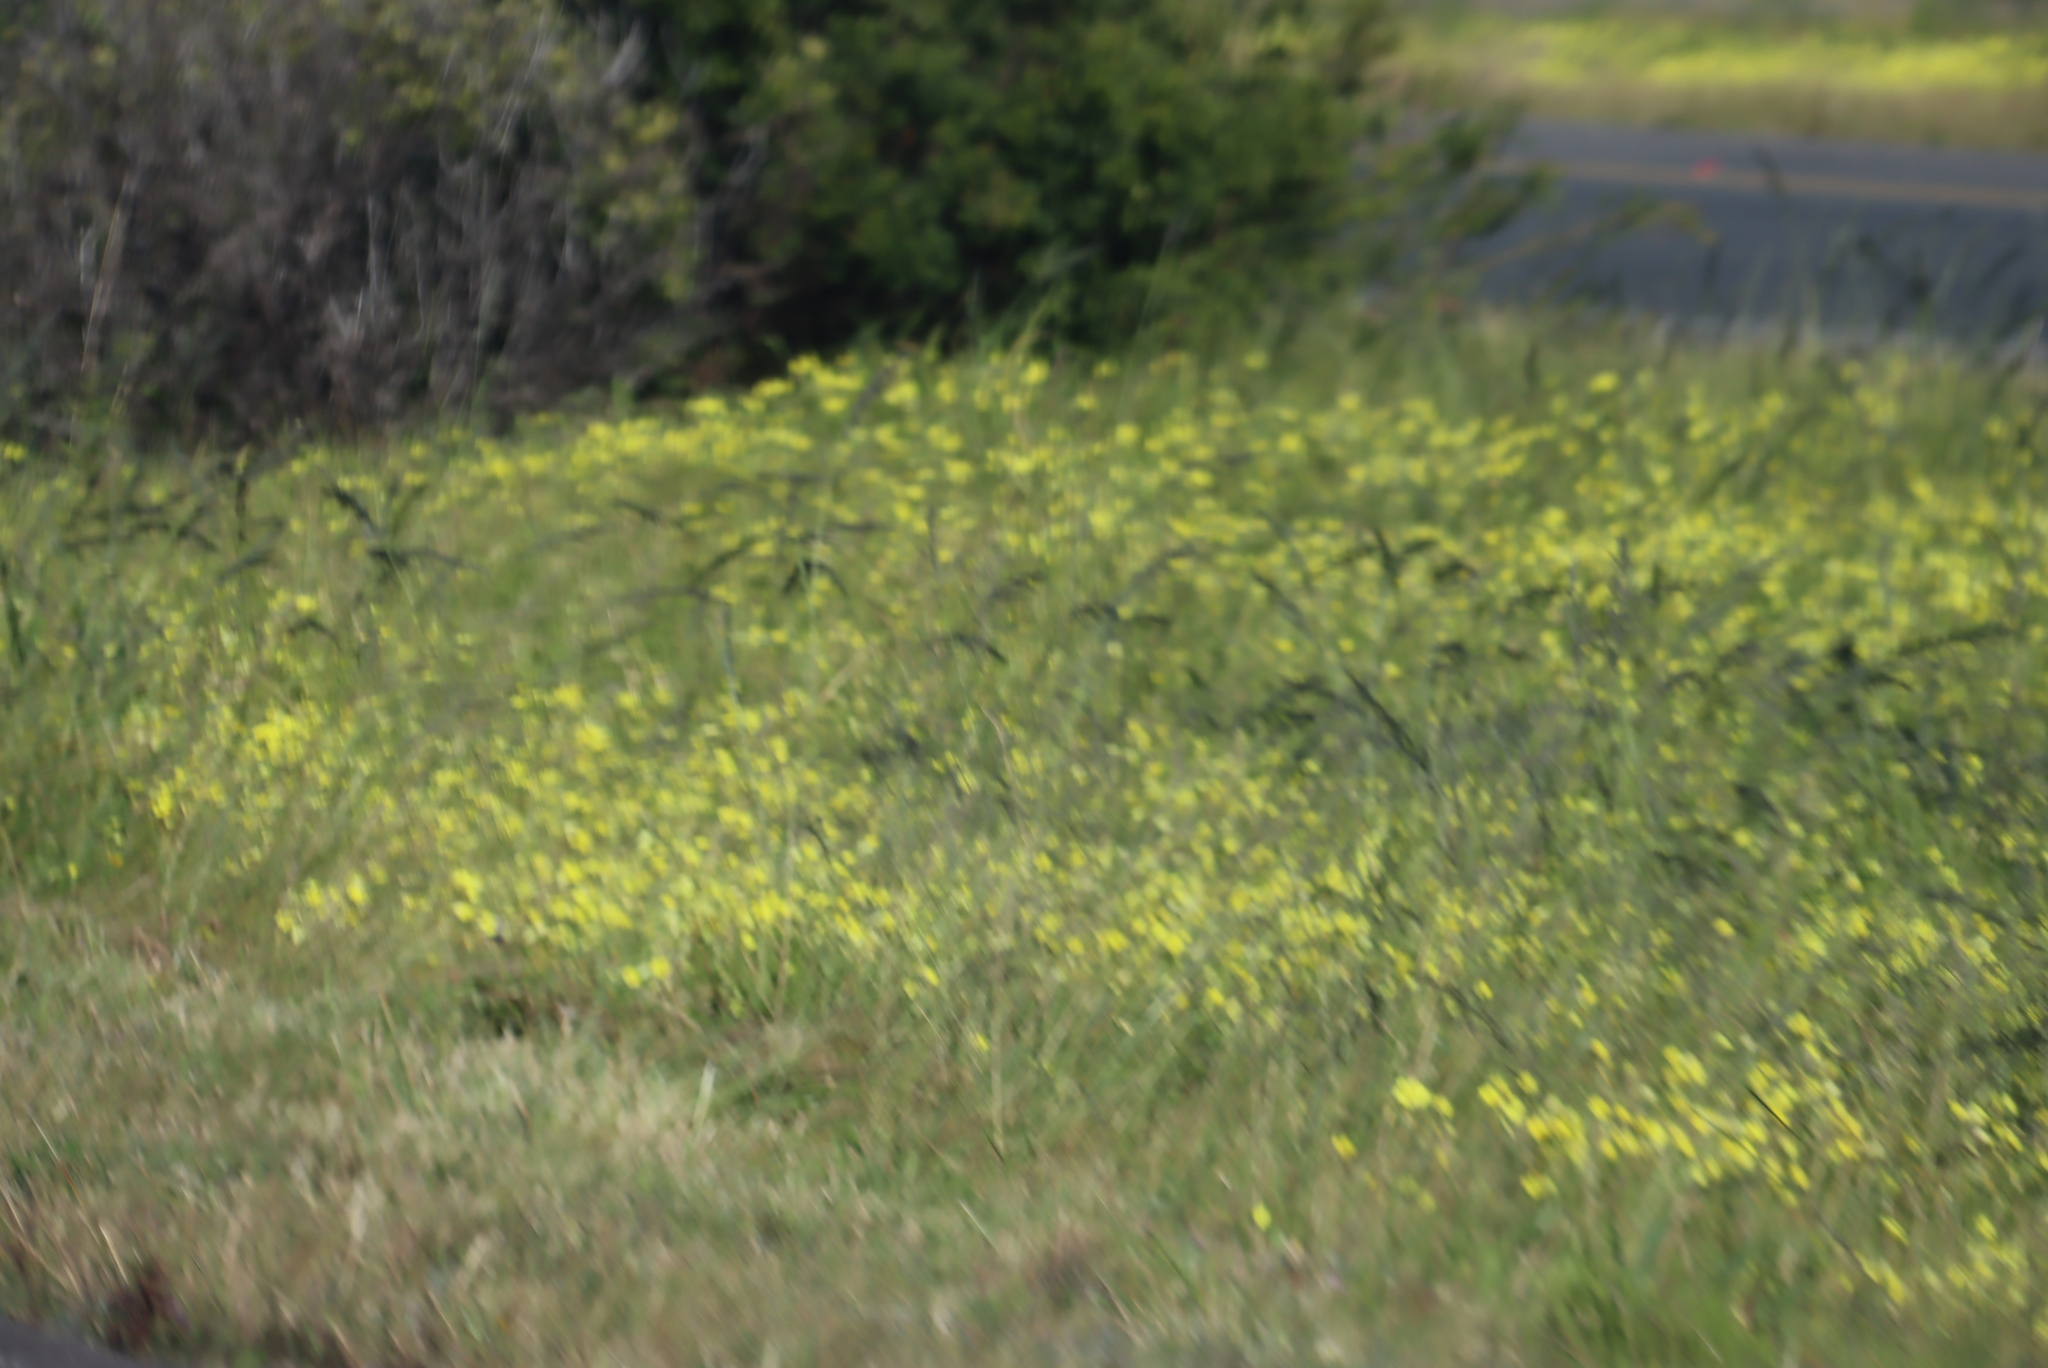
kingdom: Plantae
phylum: Tracheophyta
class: Magnoliopsida
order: Oxalidales
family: Oxalidaceae
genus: Oxalis
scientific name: Oxalis pes-caprae
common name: Bermuda-buttercup
